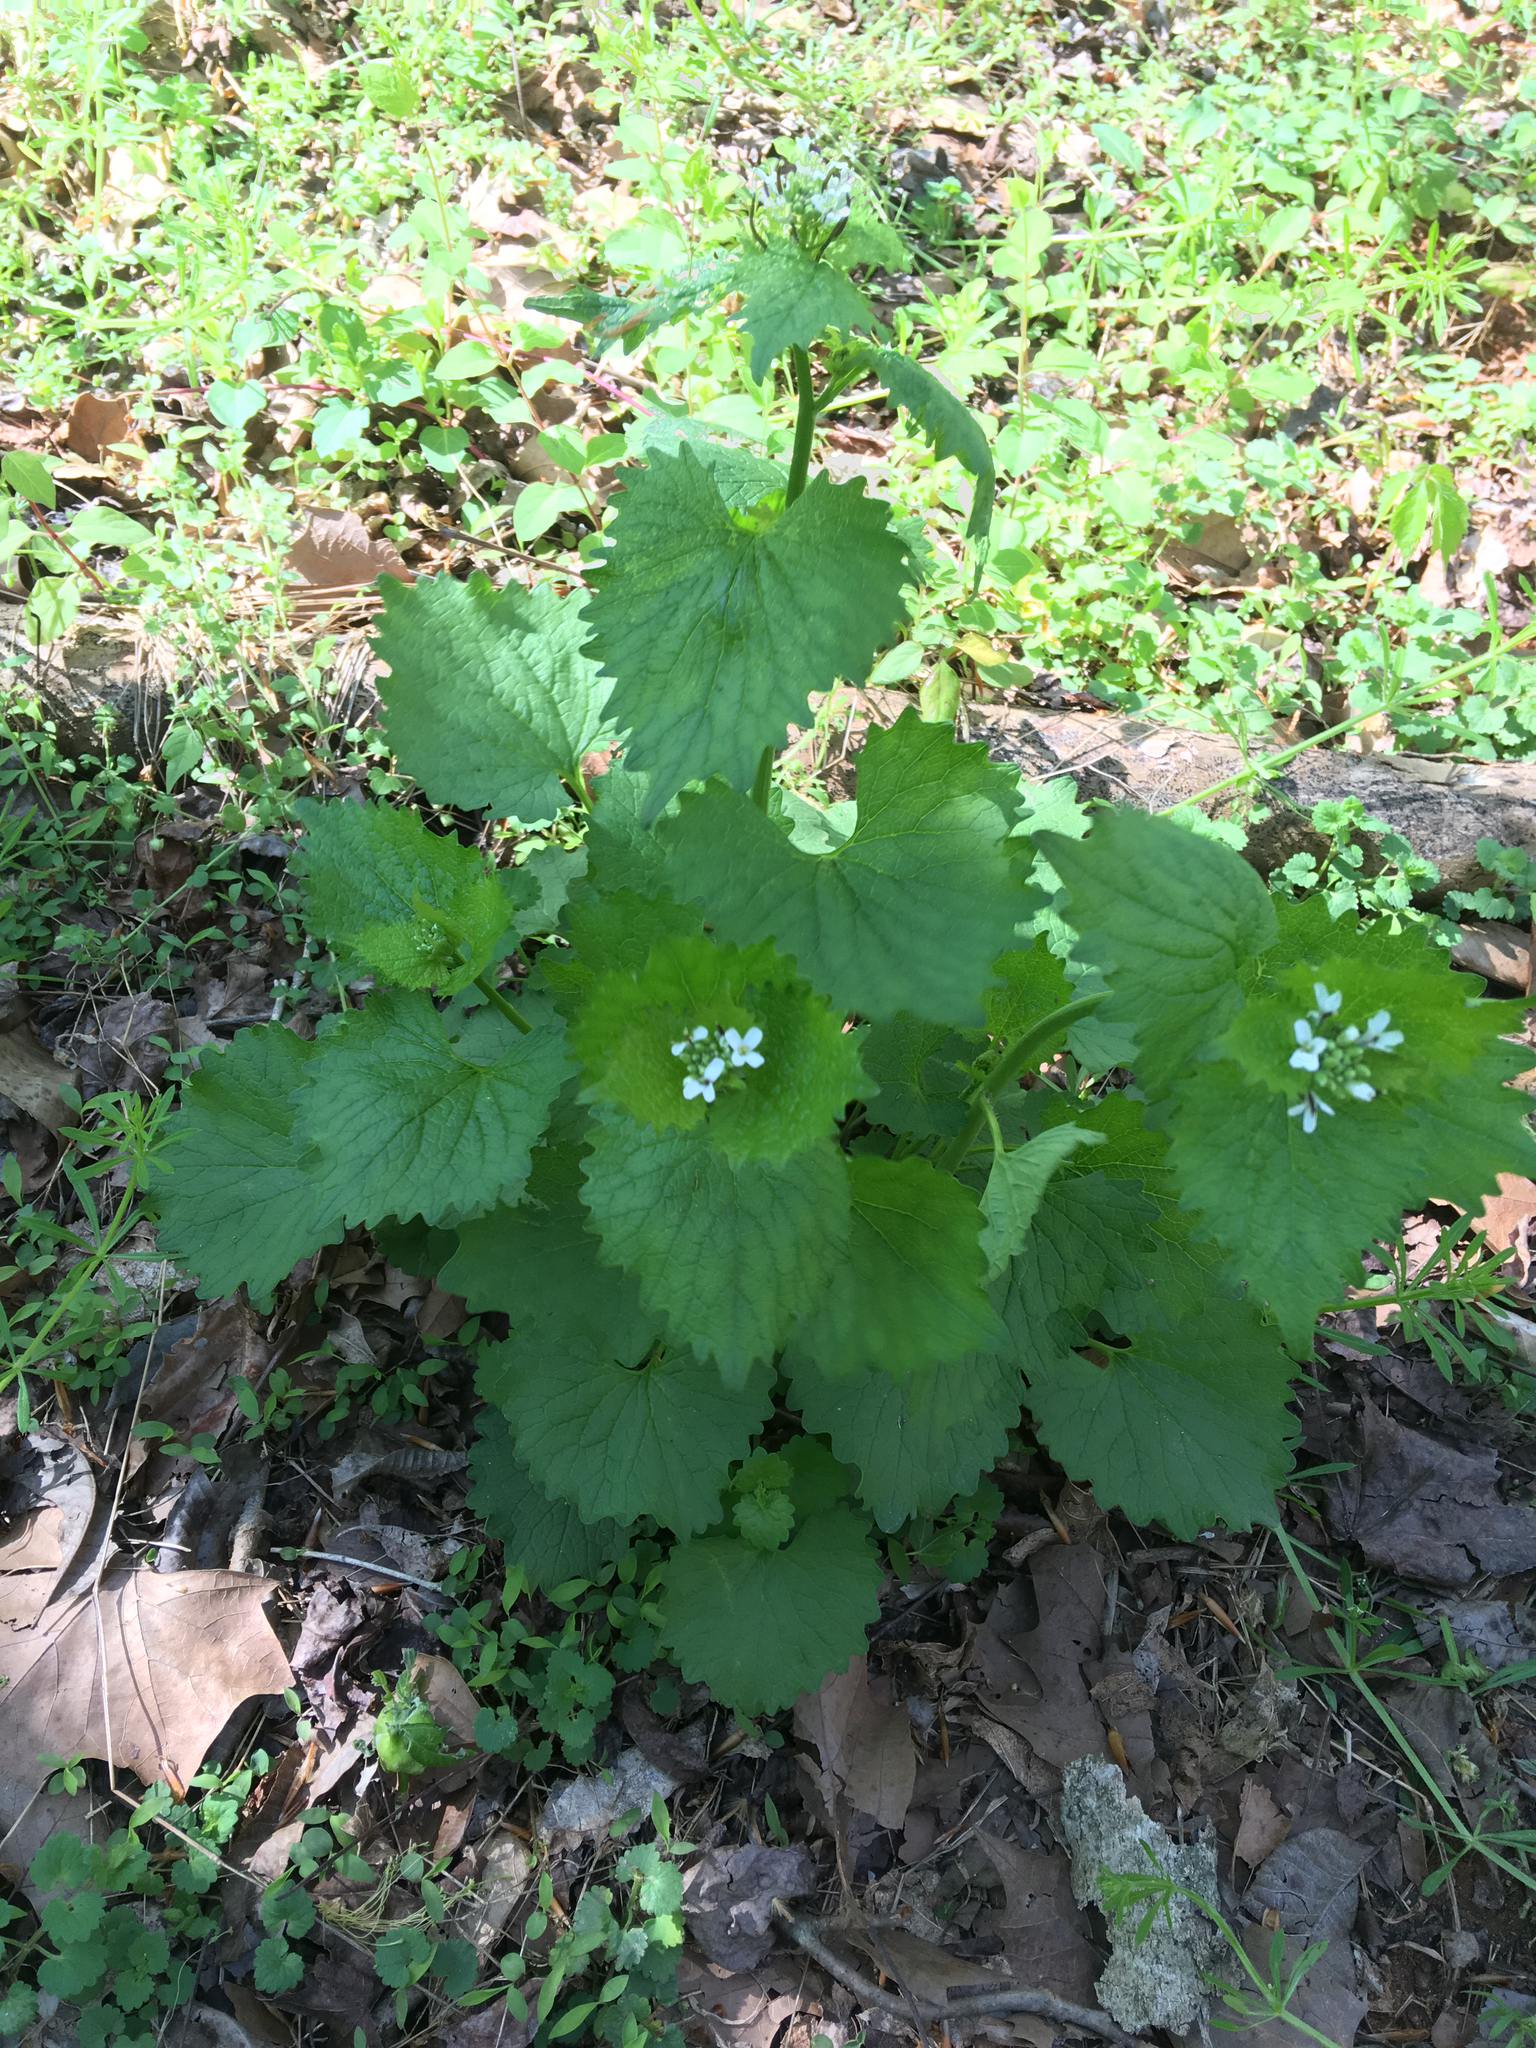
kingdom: Plantae
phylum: Tracheophyta
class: Magnoliopsida
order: Brassicales
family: Brassicaceae
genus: Alliaria
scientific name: Alliaria petiolata
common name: Garlic mustard
